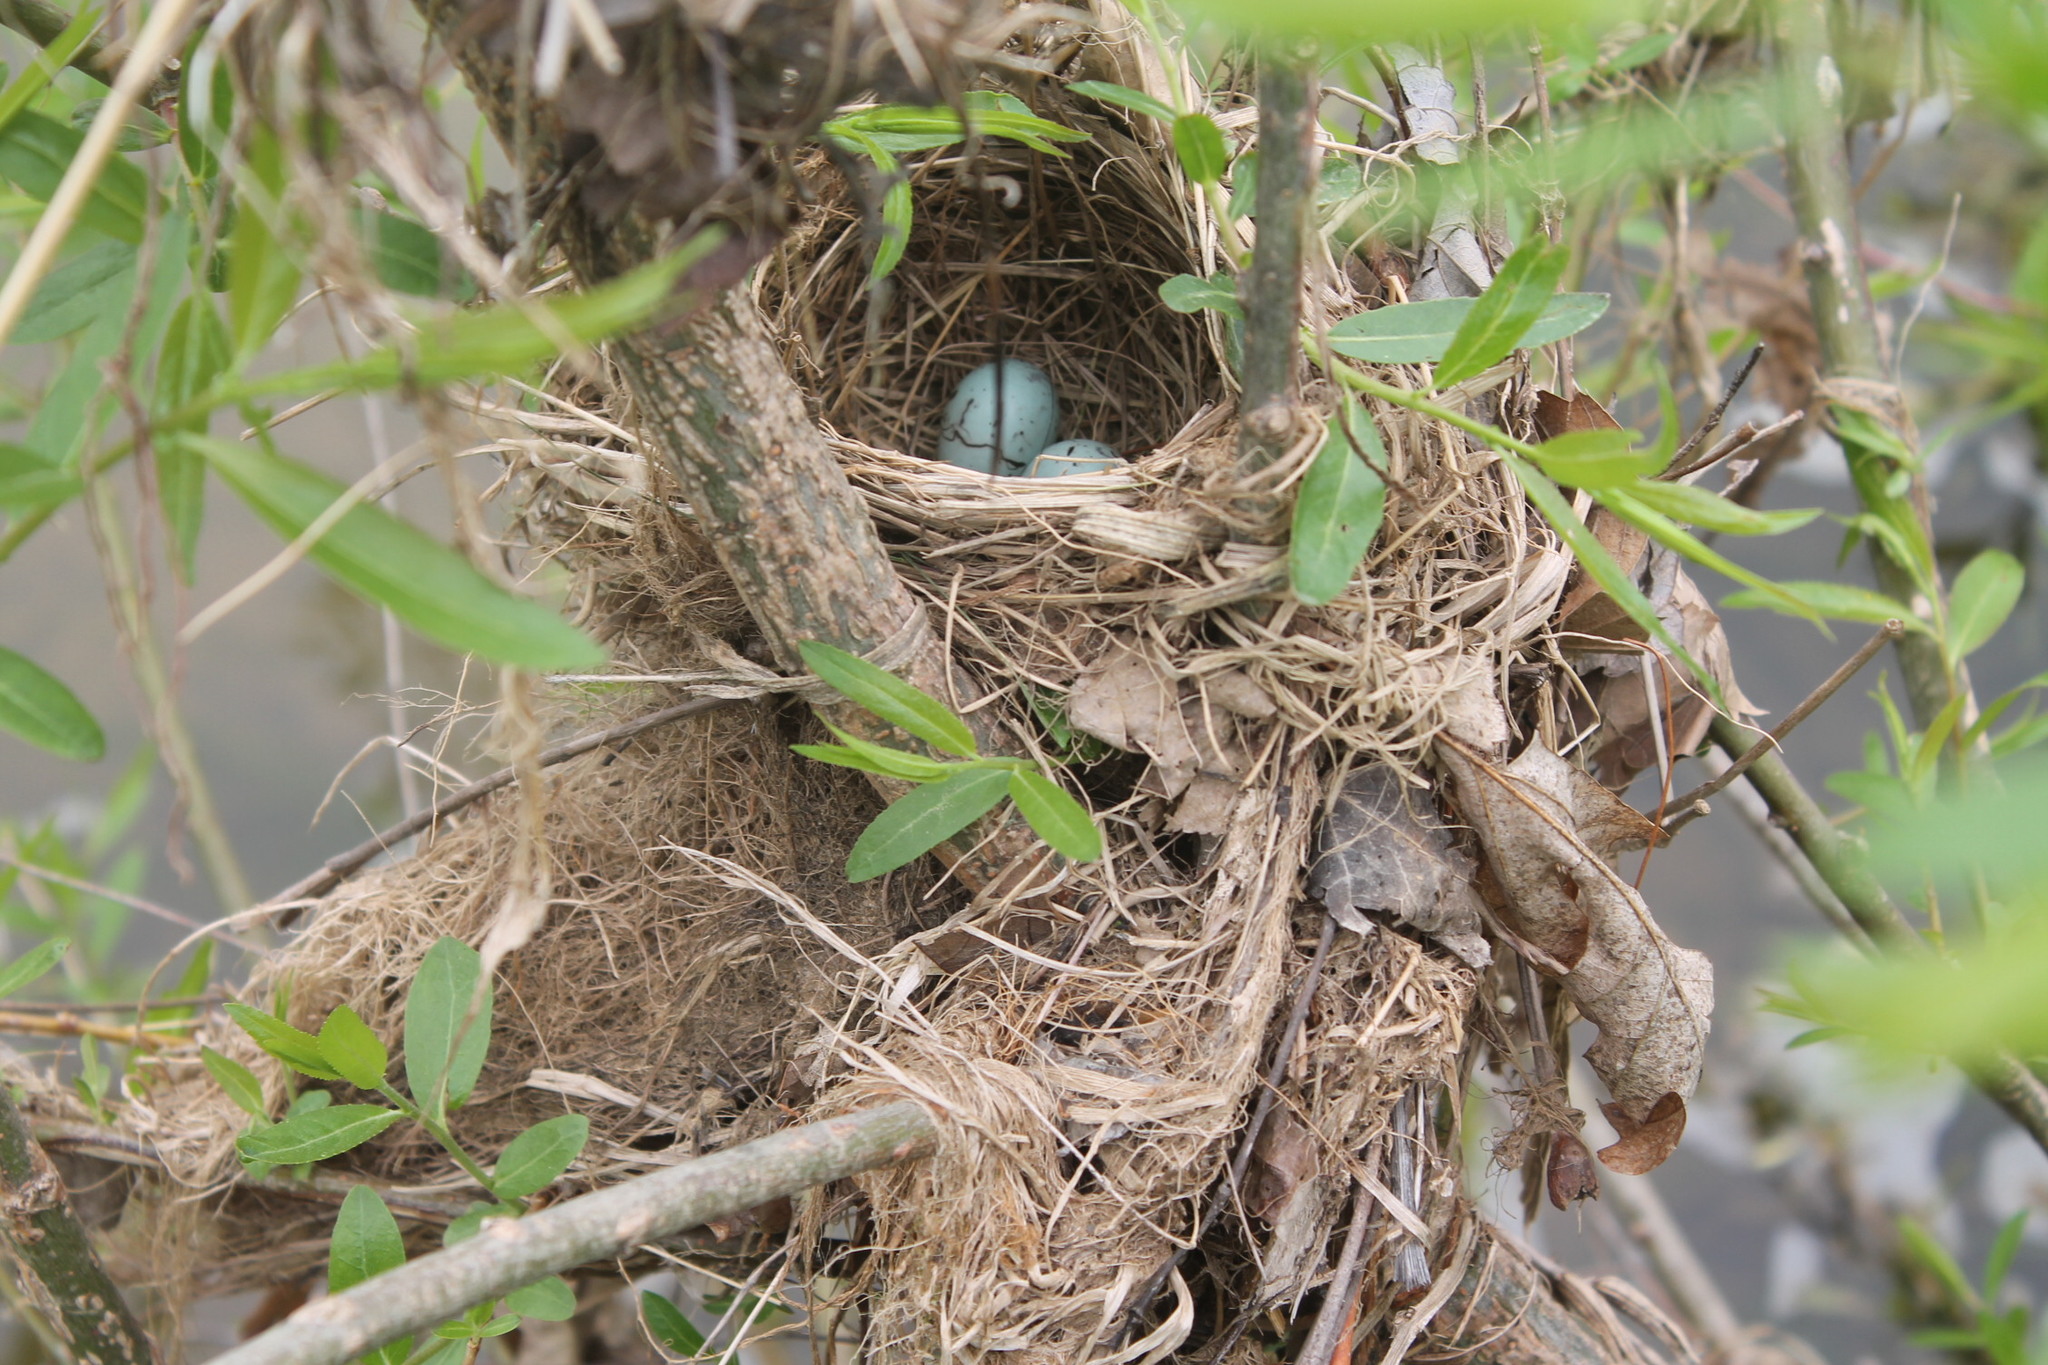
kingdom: Animalia
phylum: Chordata
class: Aves
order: Passeriformes
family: Icteridae
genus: Agelaius
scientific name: Agelaius phoeniceus
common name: Red-winged blackbird
